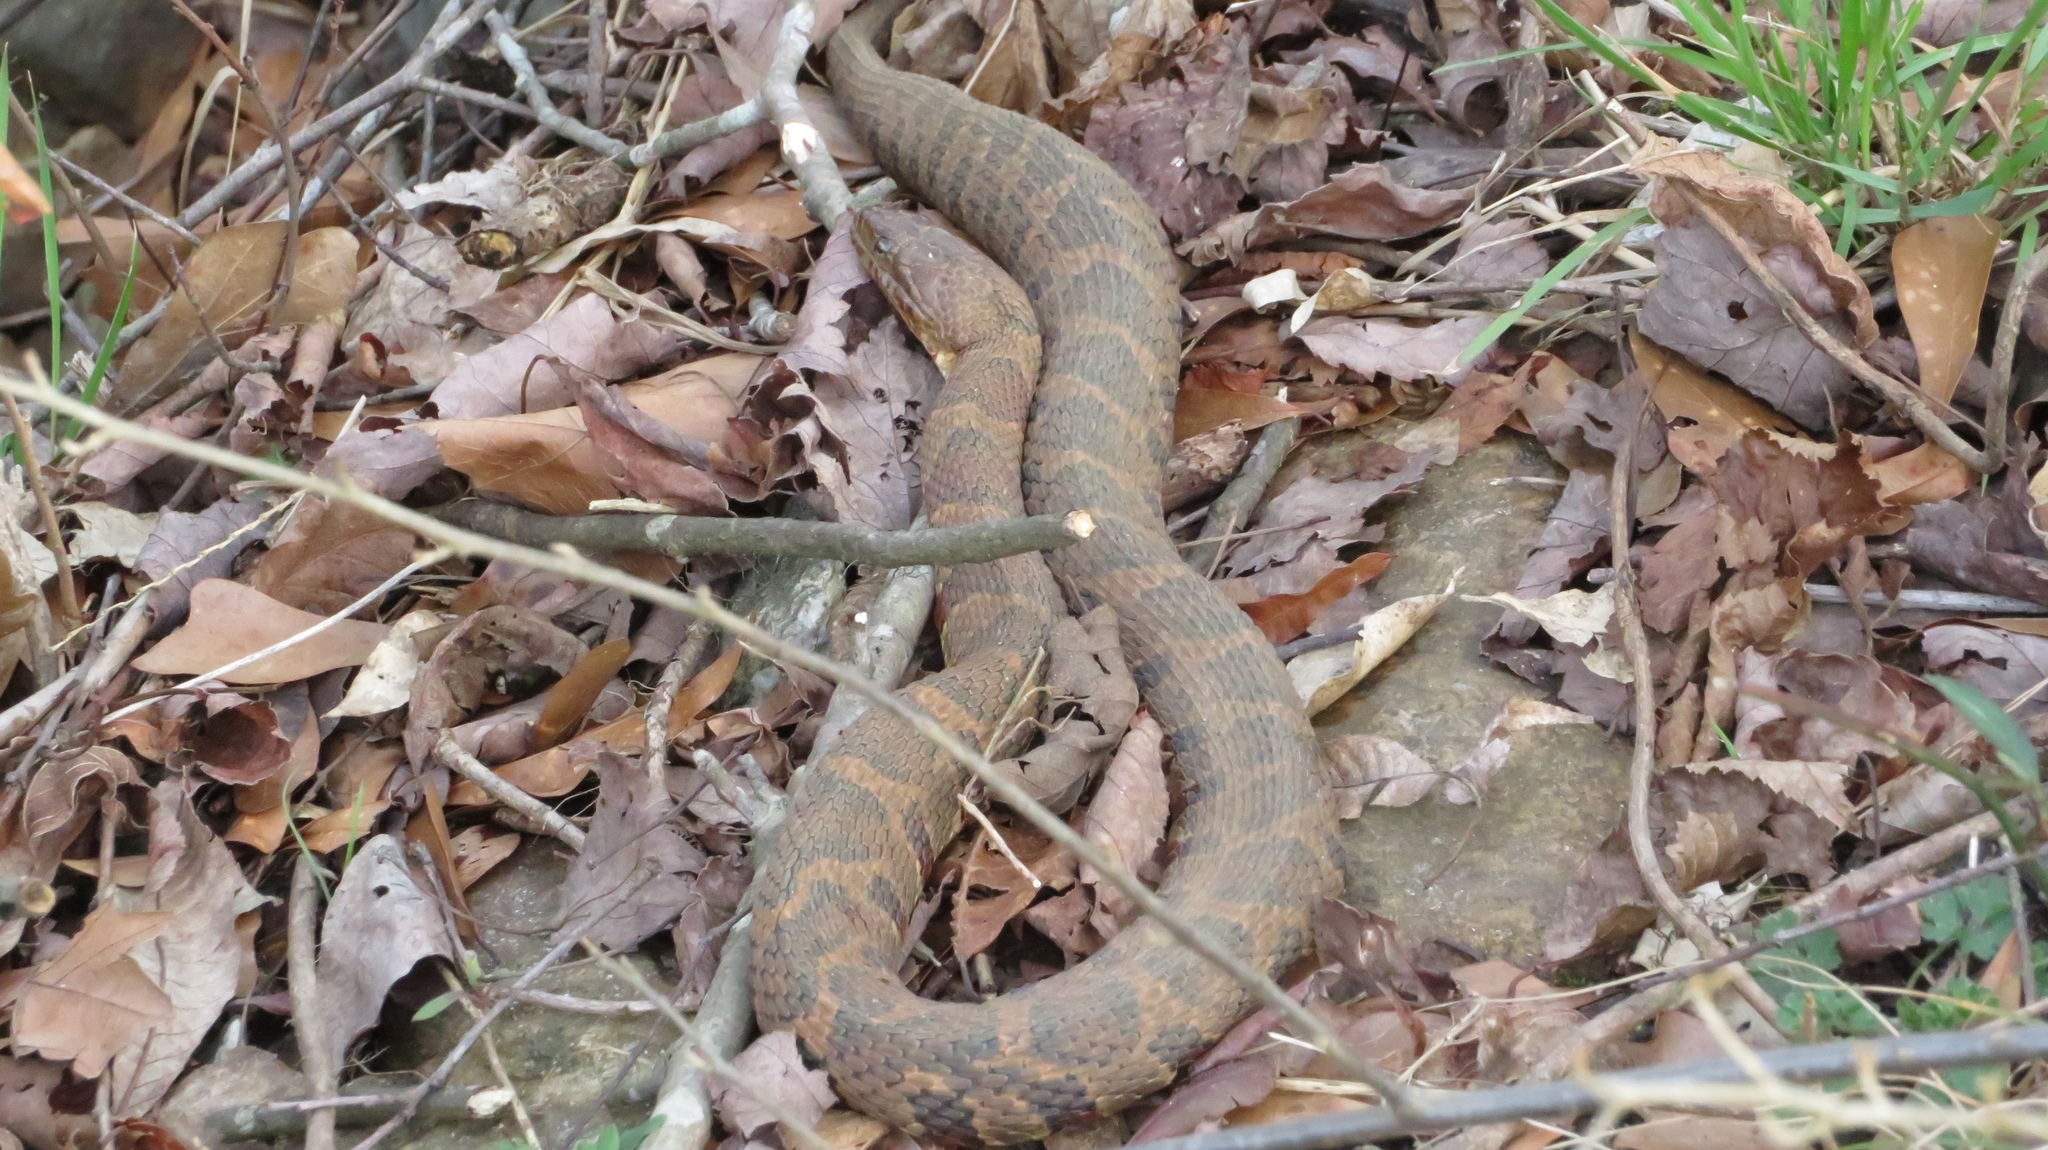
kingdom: Animalia
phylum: Chordata
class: Squamata
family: Colubridae
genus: Nerodia
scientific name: Nerodia sipedon
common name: Northern water snake
